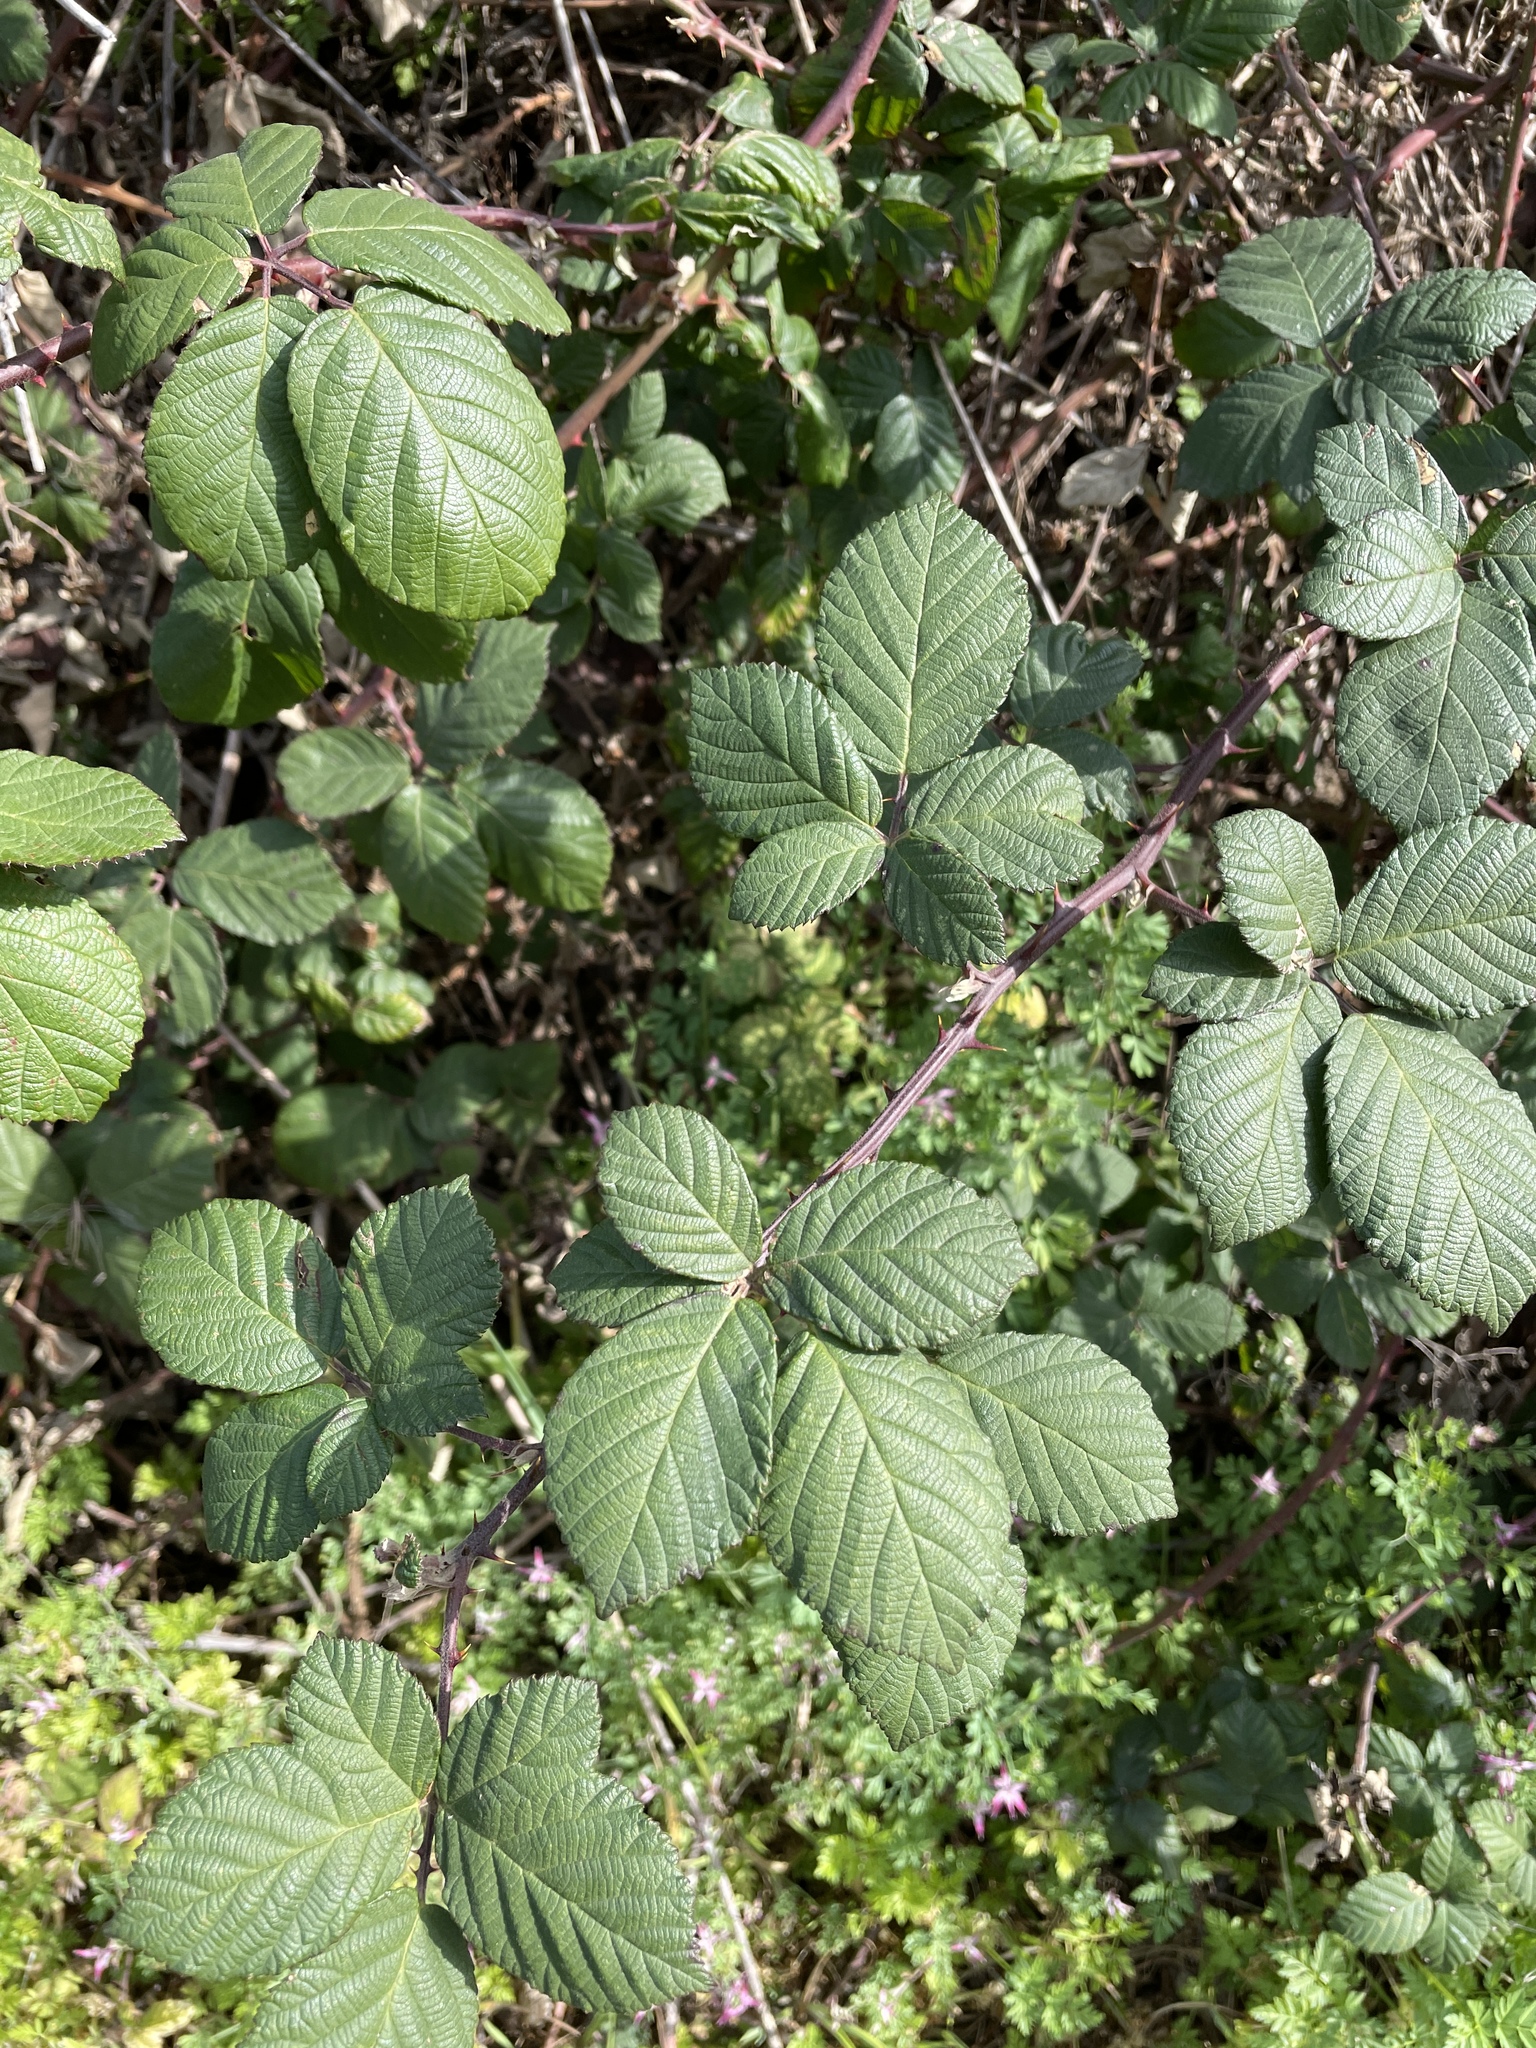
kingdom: Plantae
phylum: Tracheophyta
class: Magnoliopsida
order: Rosales
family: Rosaceae
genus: Rubus
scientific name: Rubus armeniacus
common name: Himalayan blackberry
